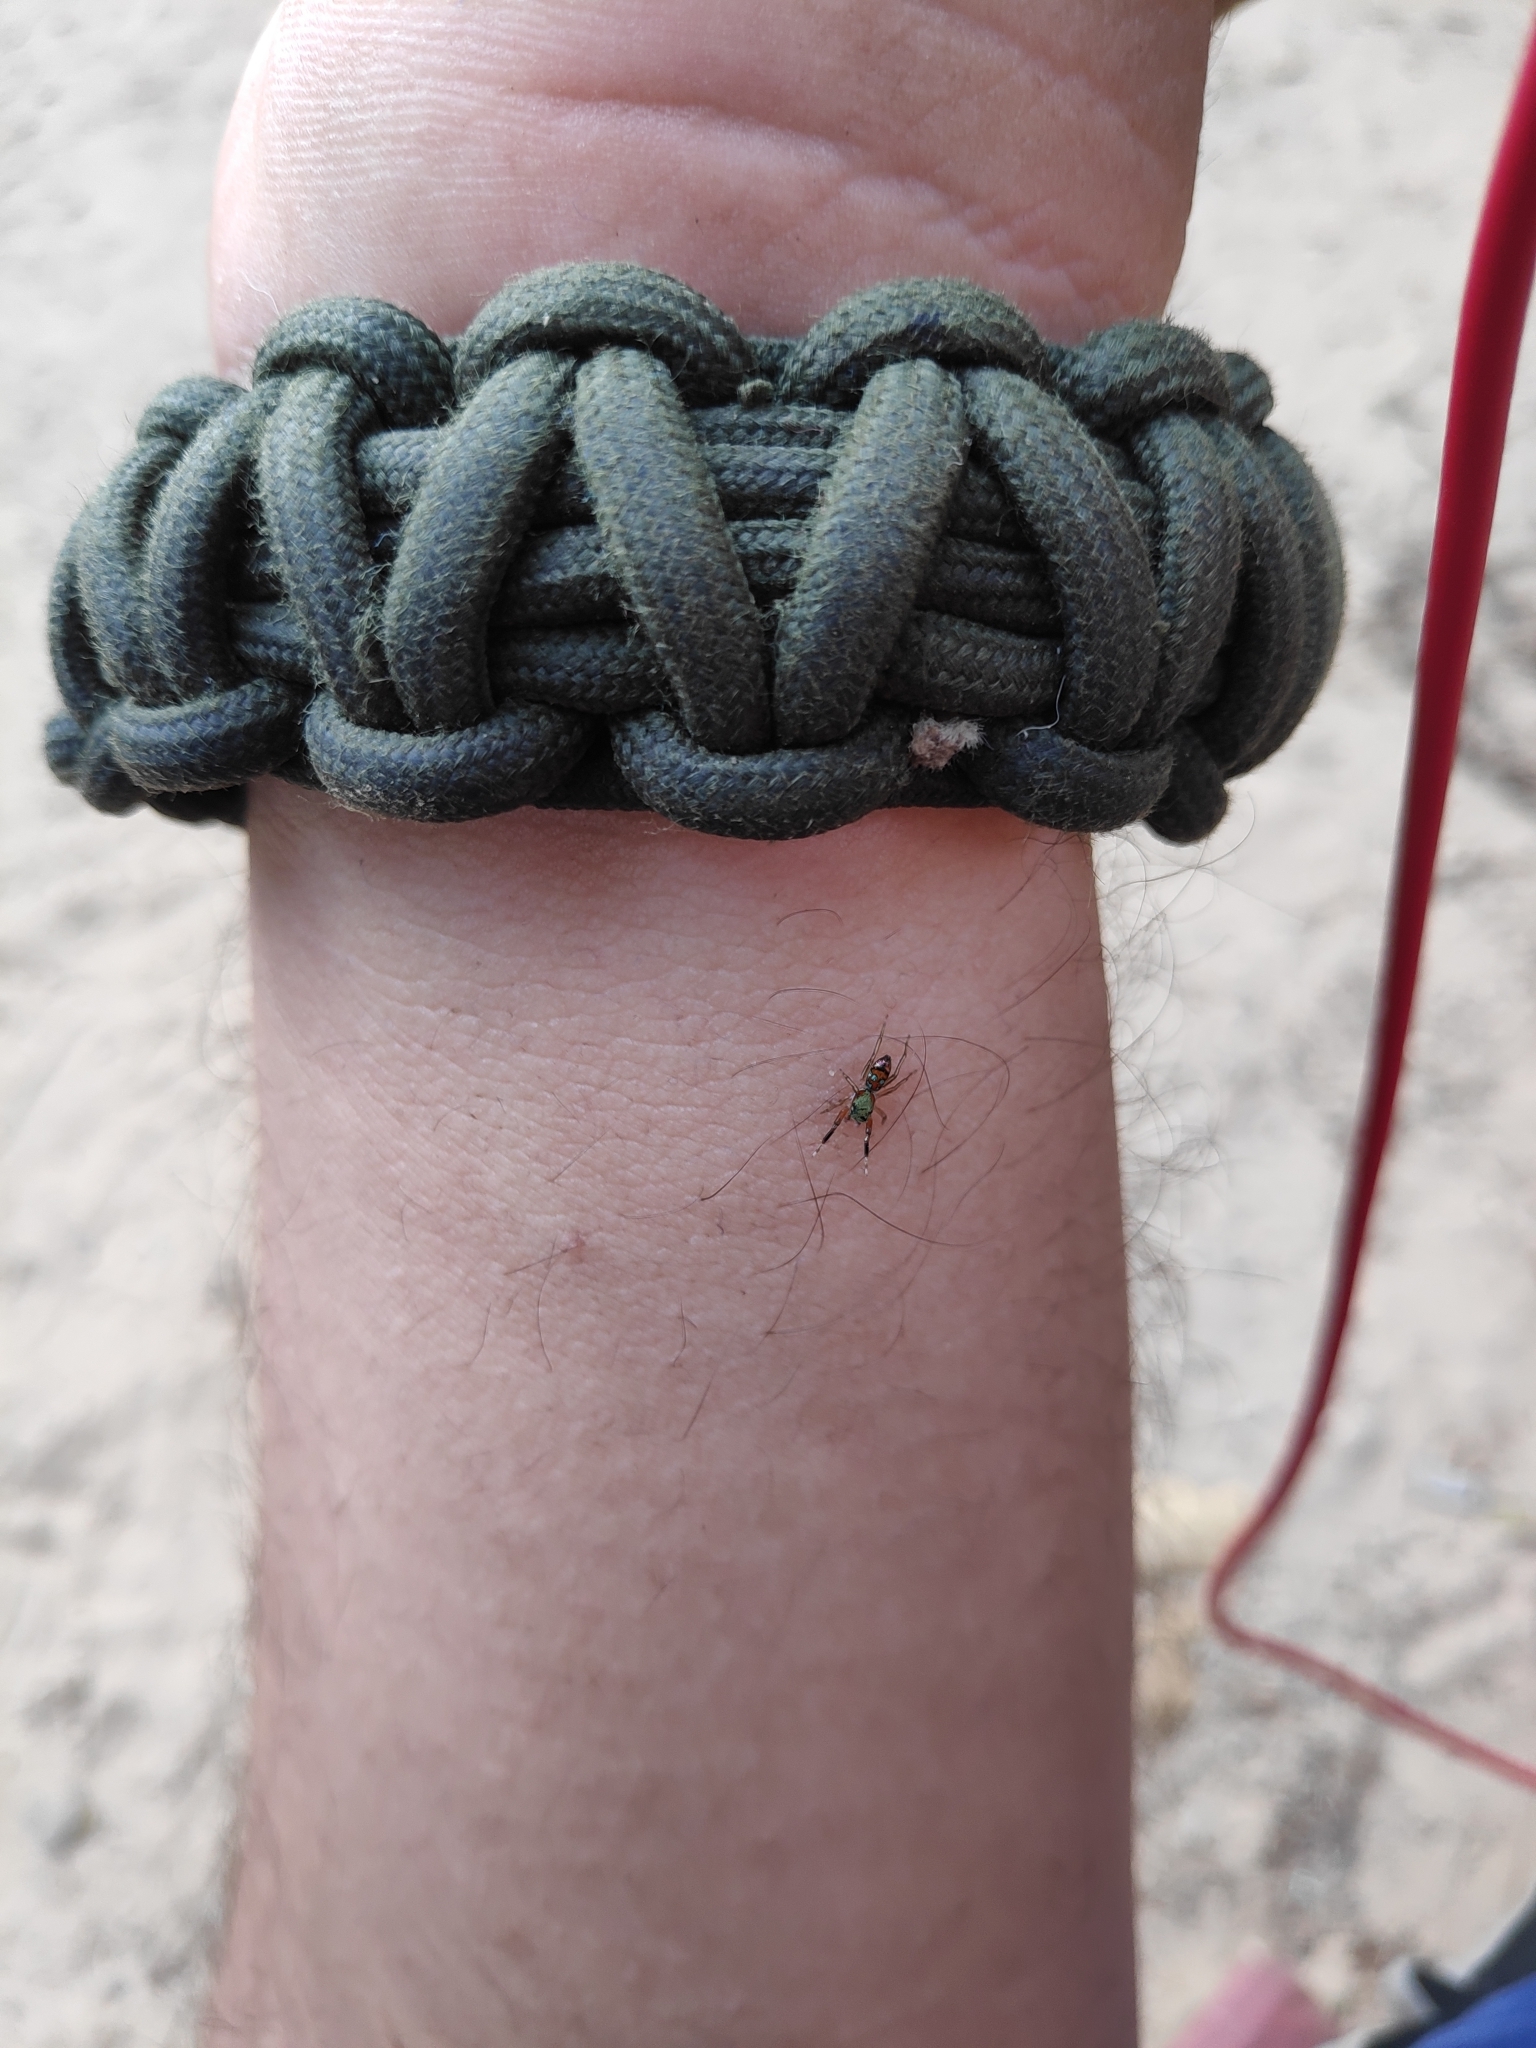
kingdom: Animalia
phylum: Arthropoda
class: Arachnida
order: Araneae
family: Salticidae
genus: Siler
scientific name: Siler semiglaucus
